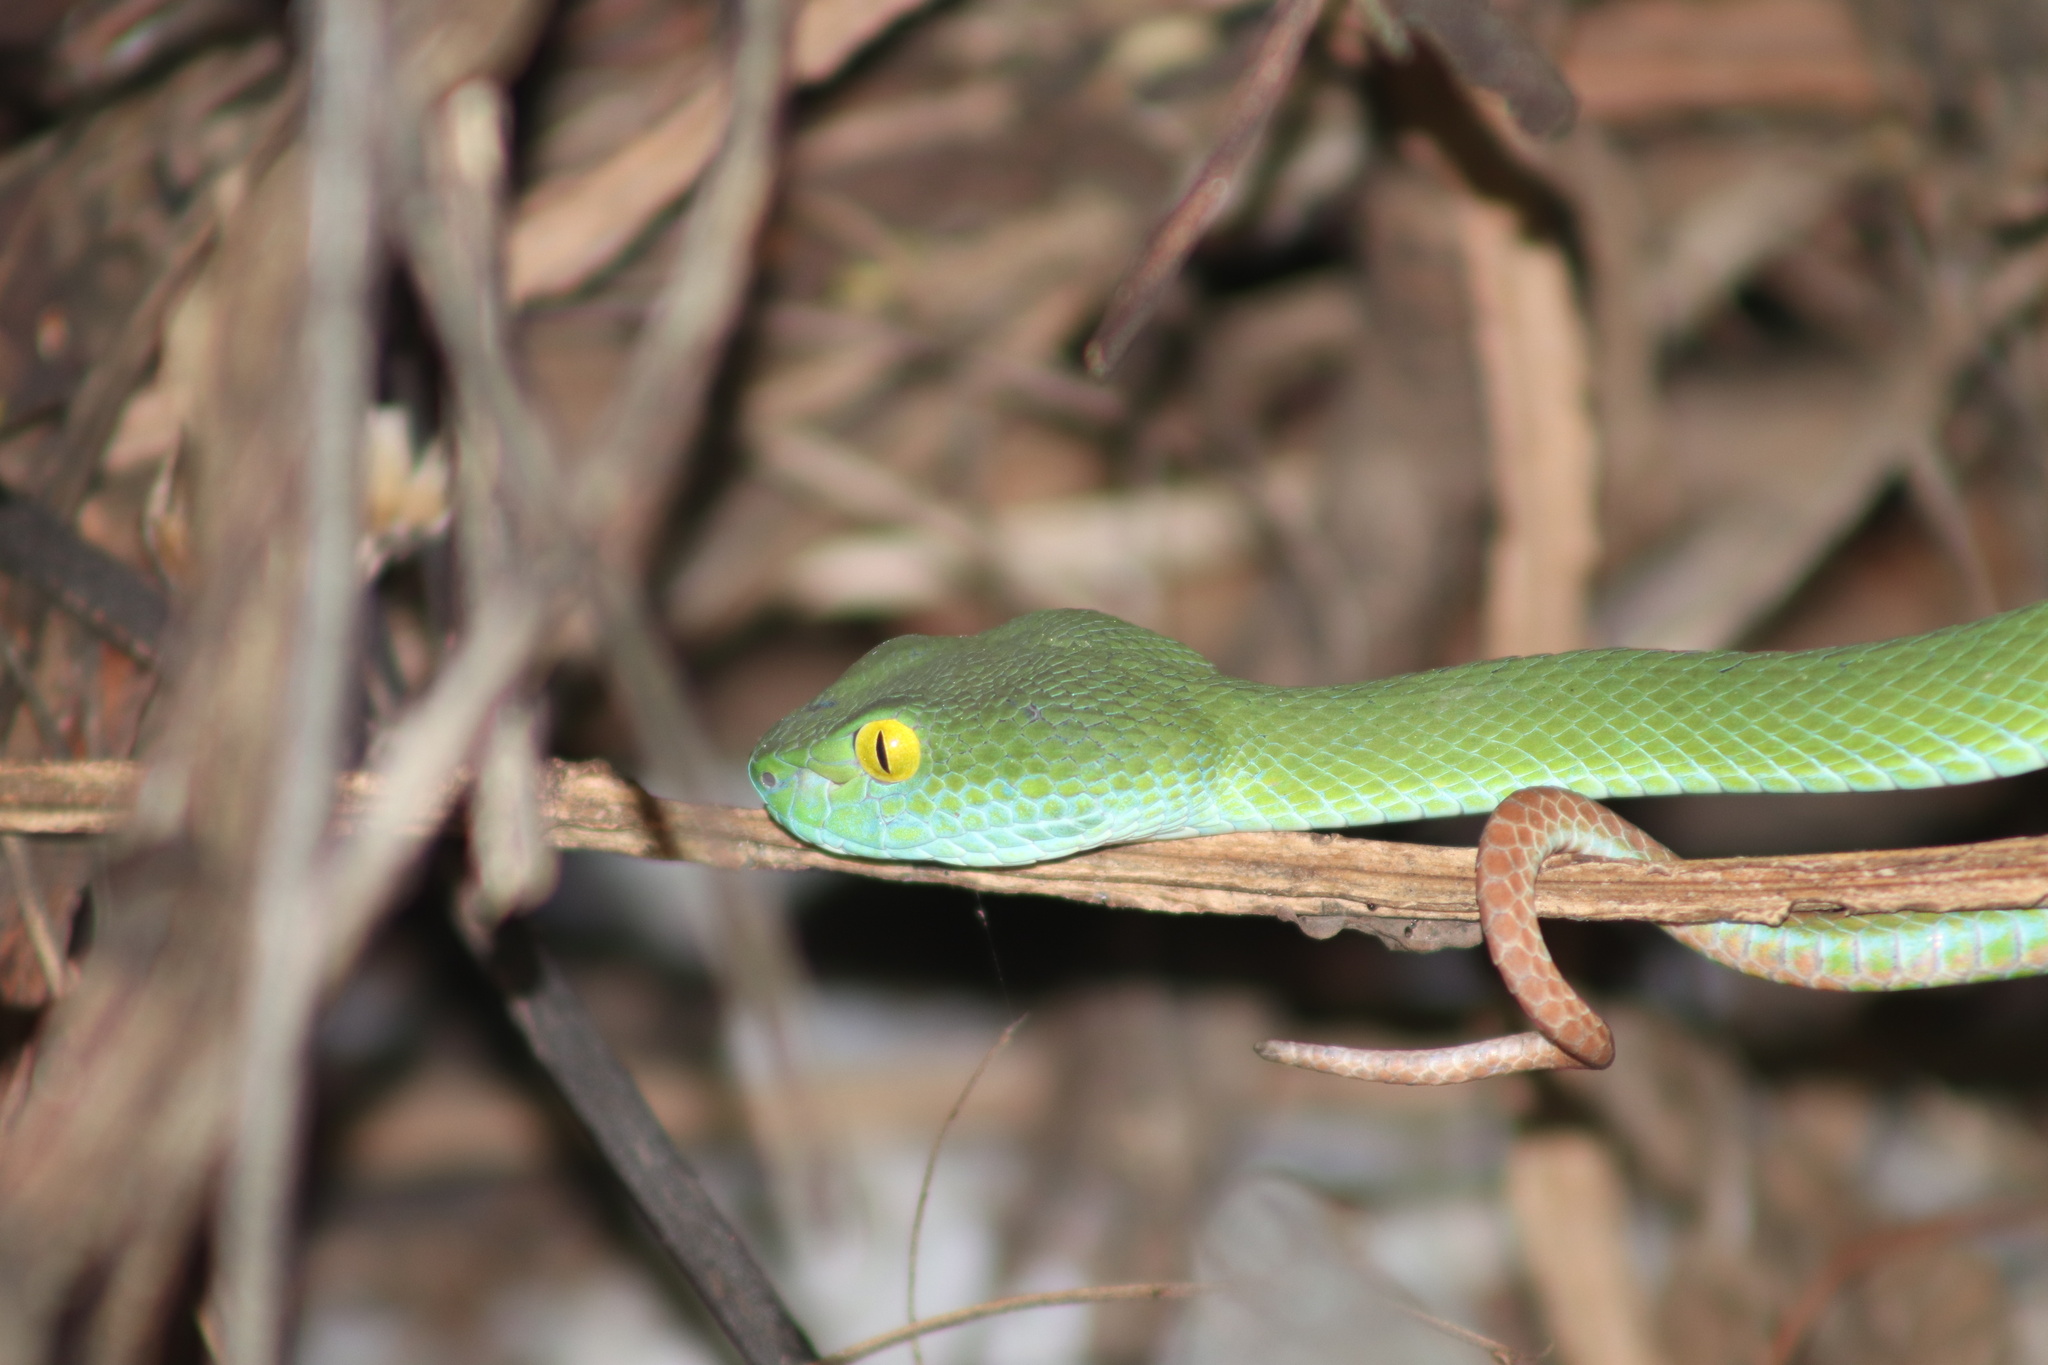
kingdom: Animalia
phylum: Chordata
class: Squamata
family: Viperidae
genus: Trimeresurus
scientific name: Trimeresurus macrops
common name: Kramer's pit viper
